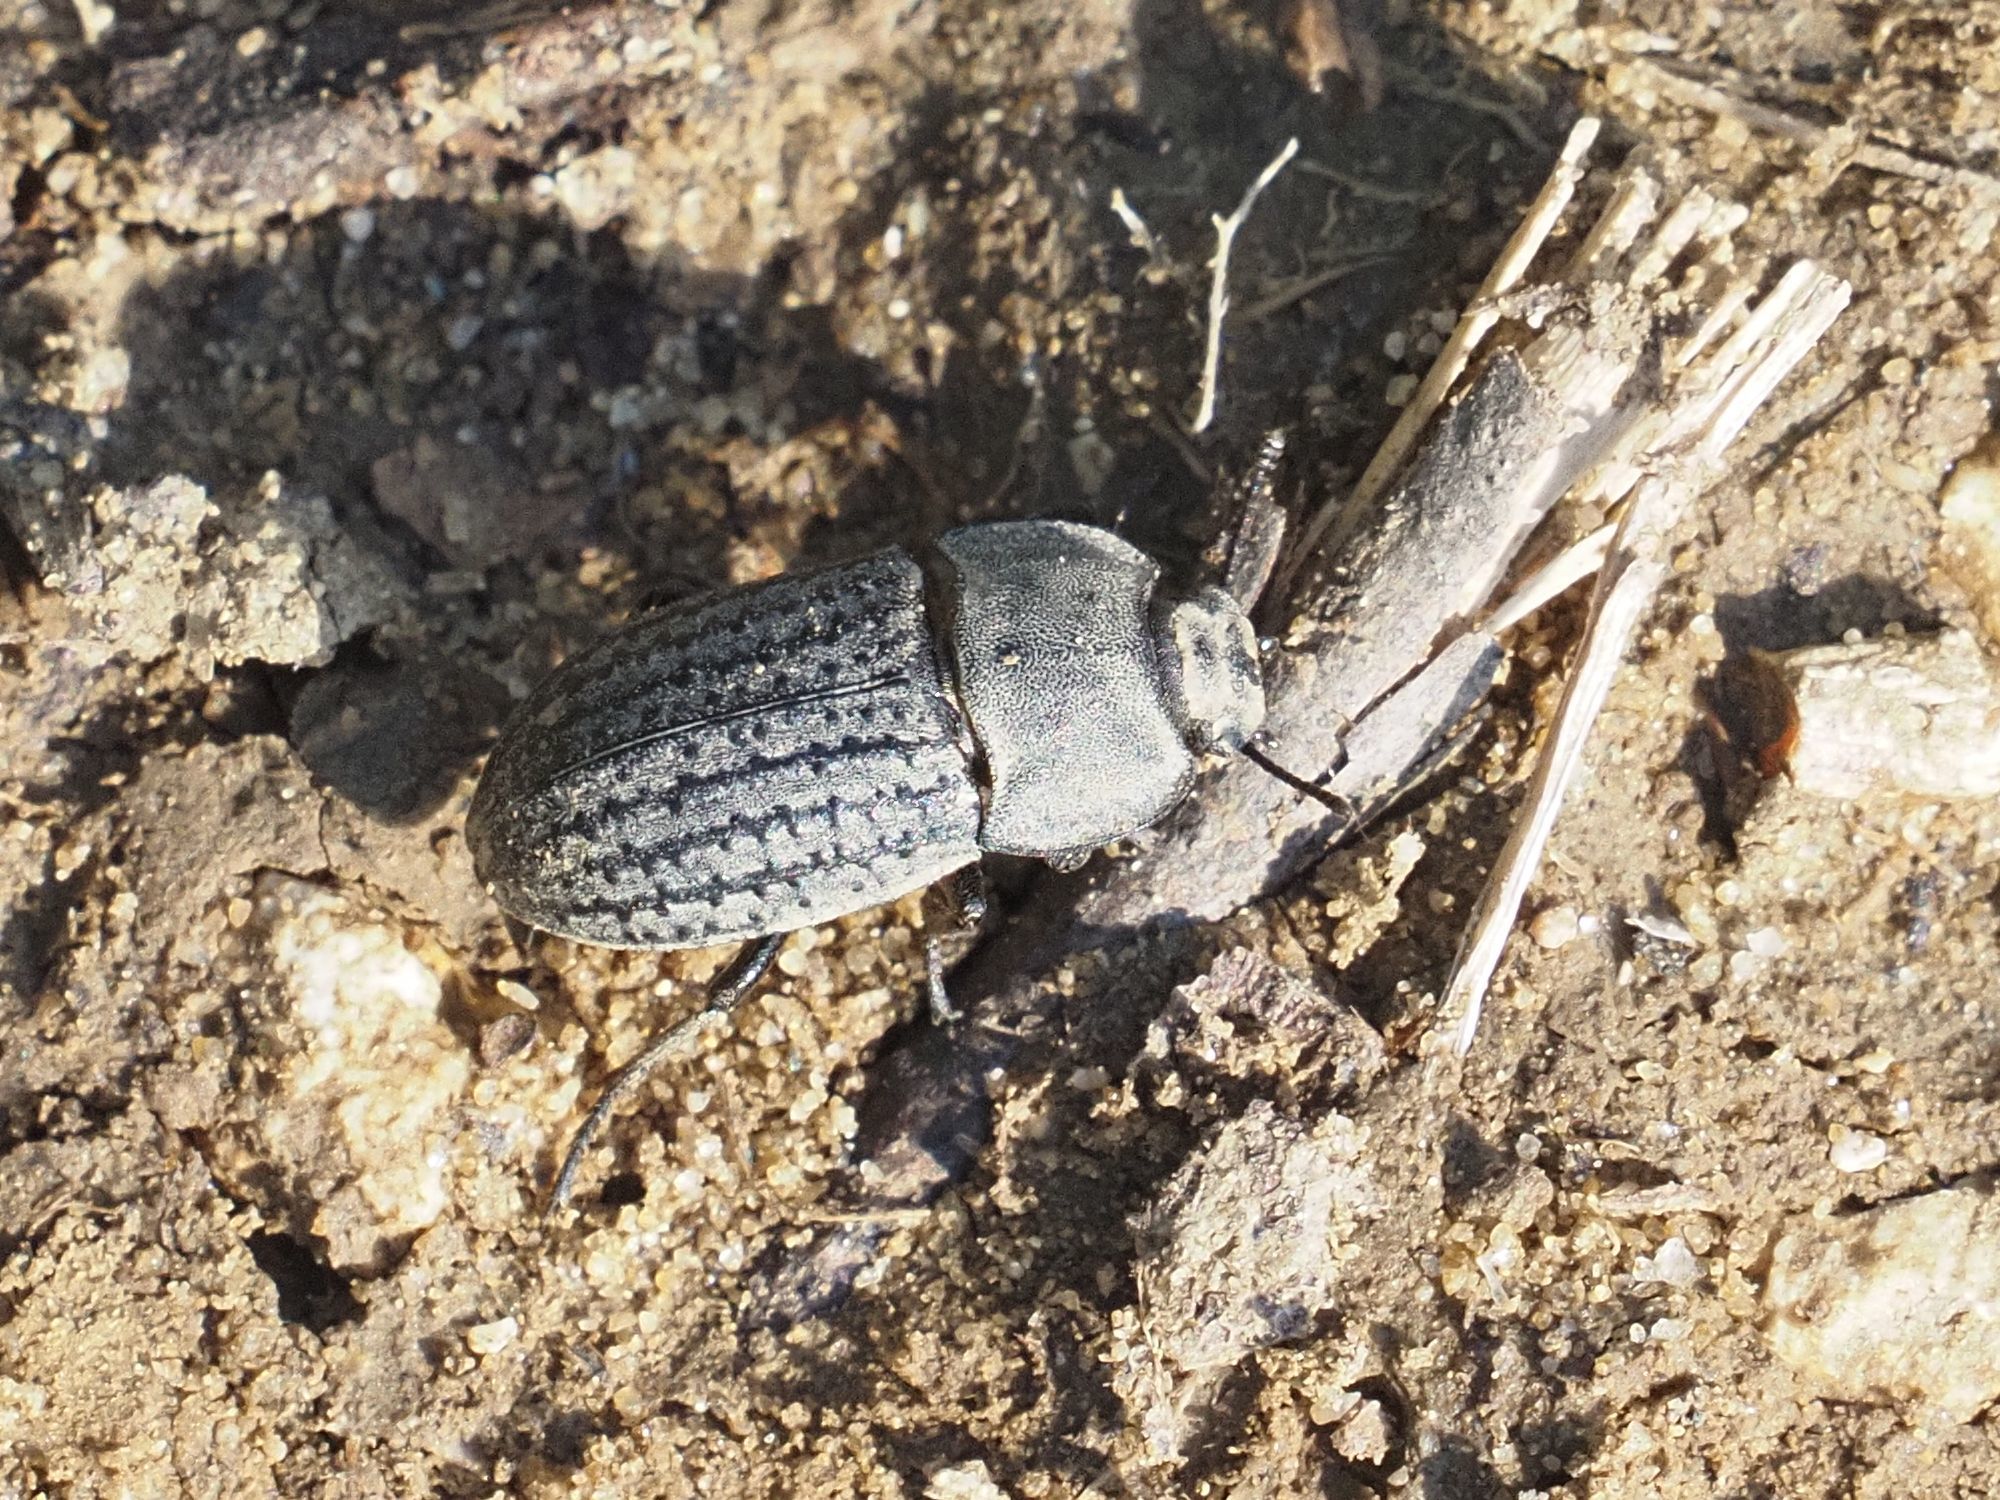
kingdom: Animalia
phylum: Arthropoda
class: Insecta
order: Coleoptera
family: Tenebrionidae
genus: Opatrum
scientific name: Opatrum sabulosum
